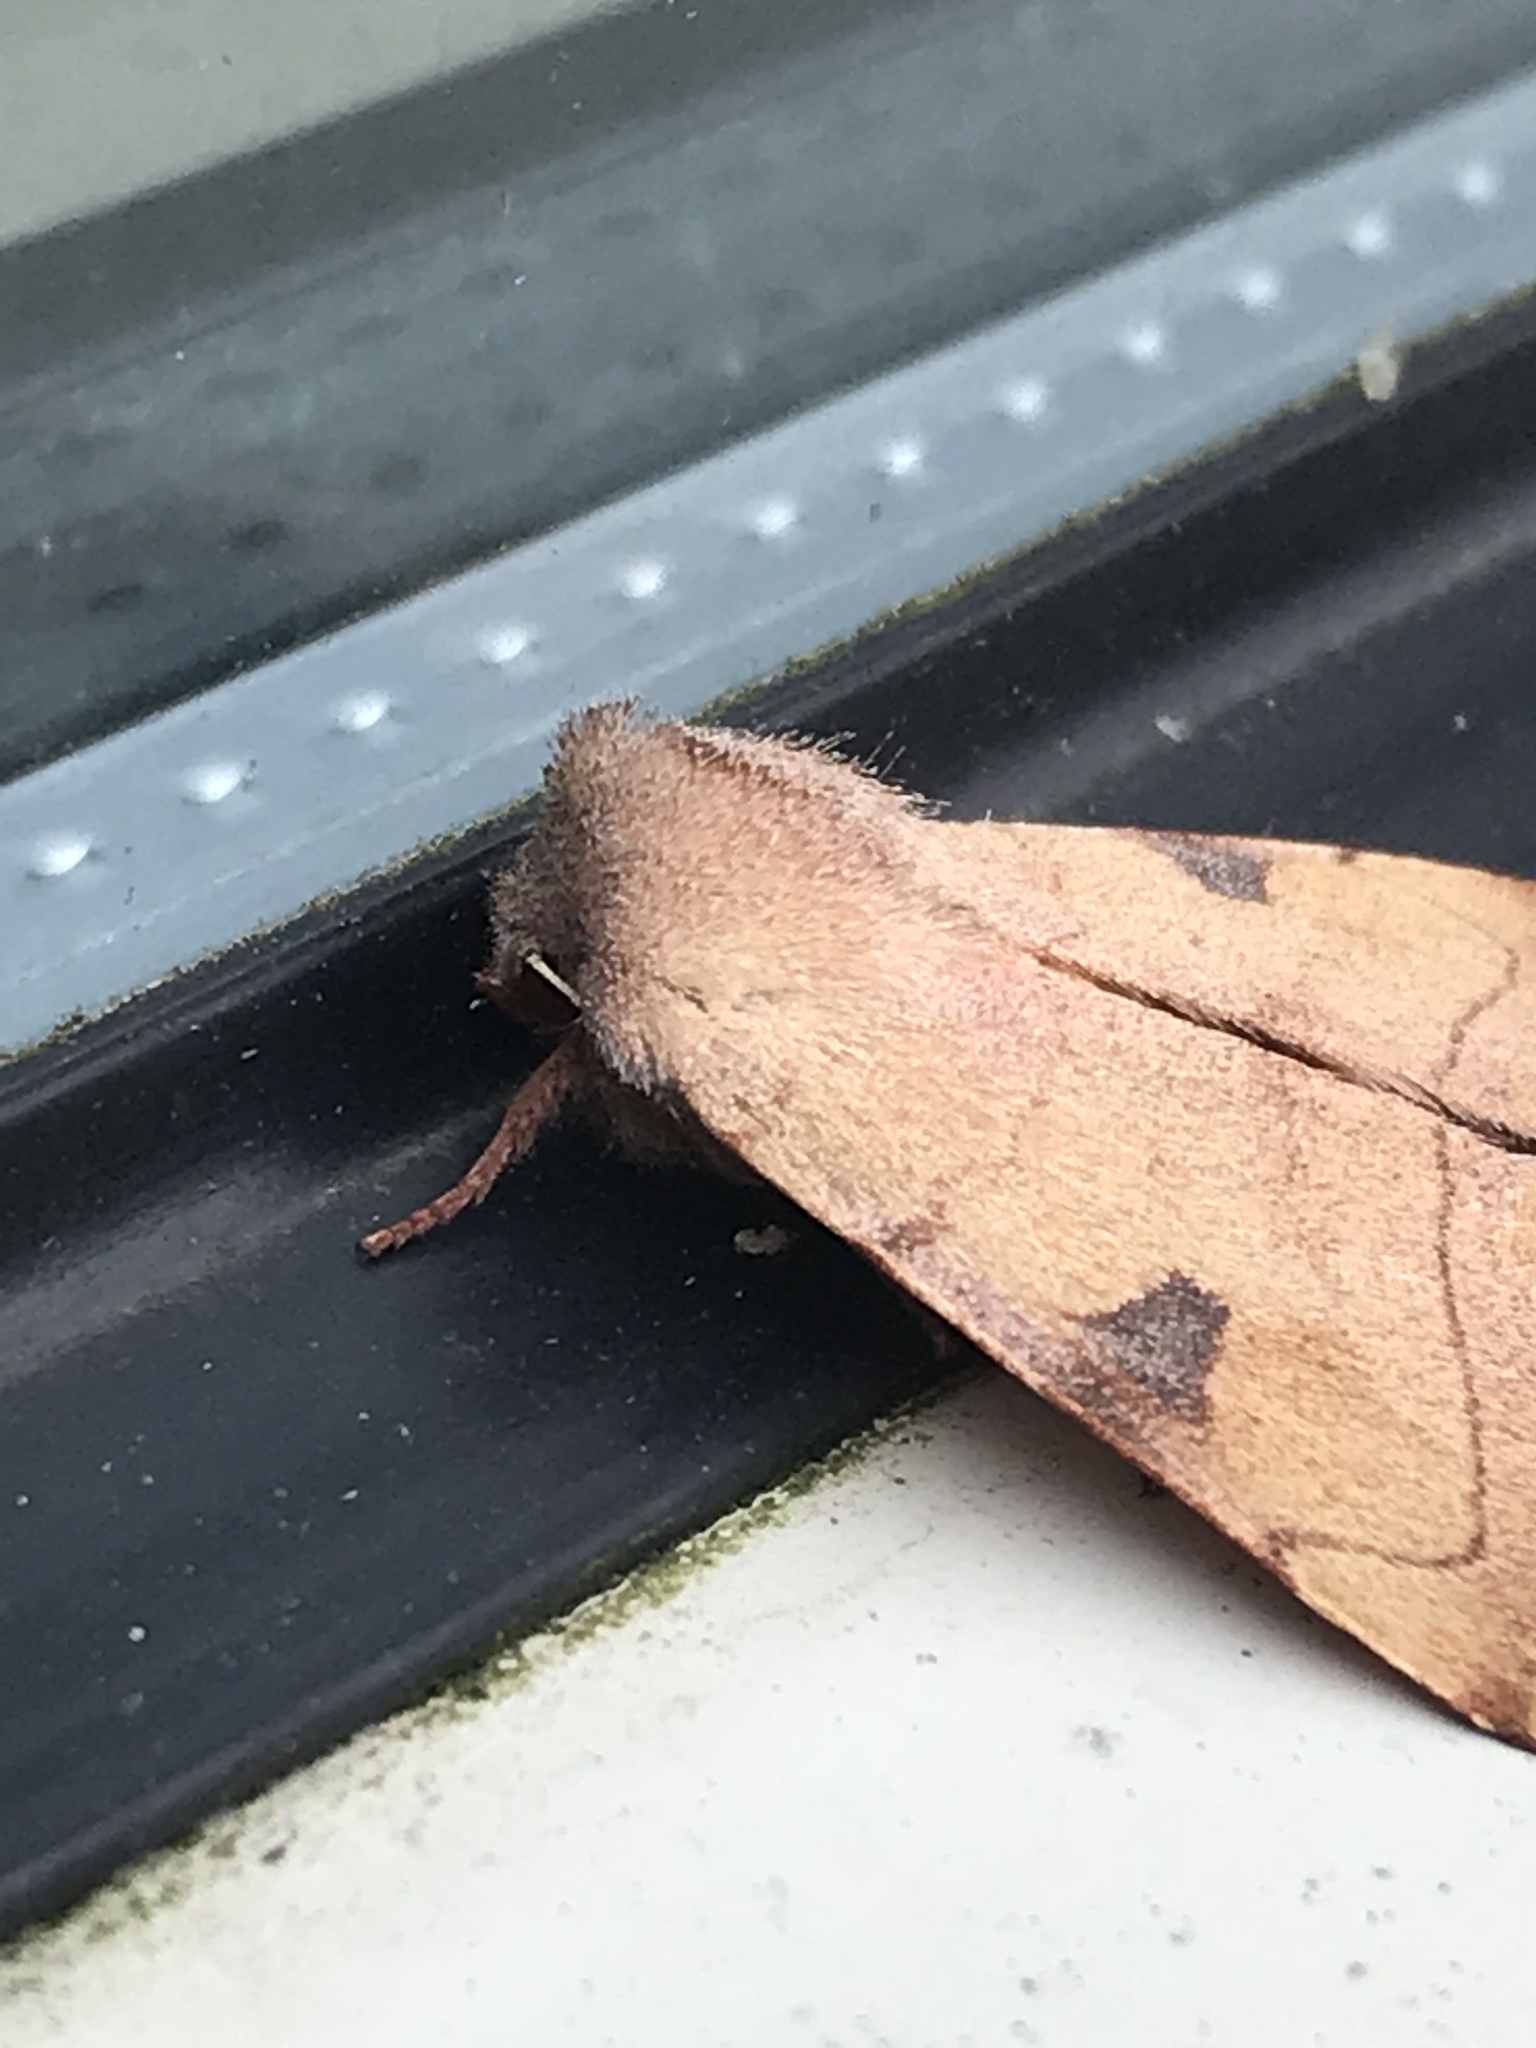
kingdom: Animalia
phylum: Arthropoda
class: Insecta
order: Lepidoptera
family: Noctuidae
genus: Choephora
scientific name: Choephora fungorum
